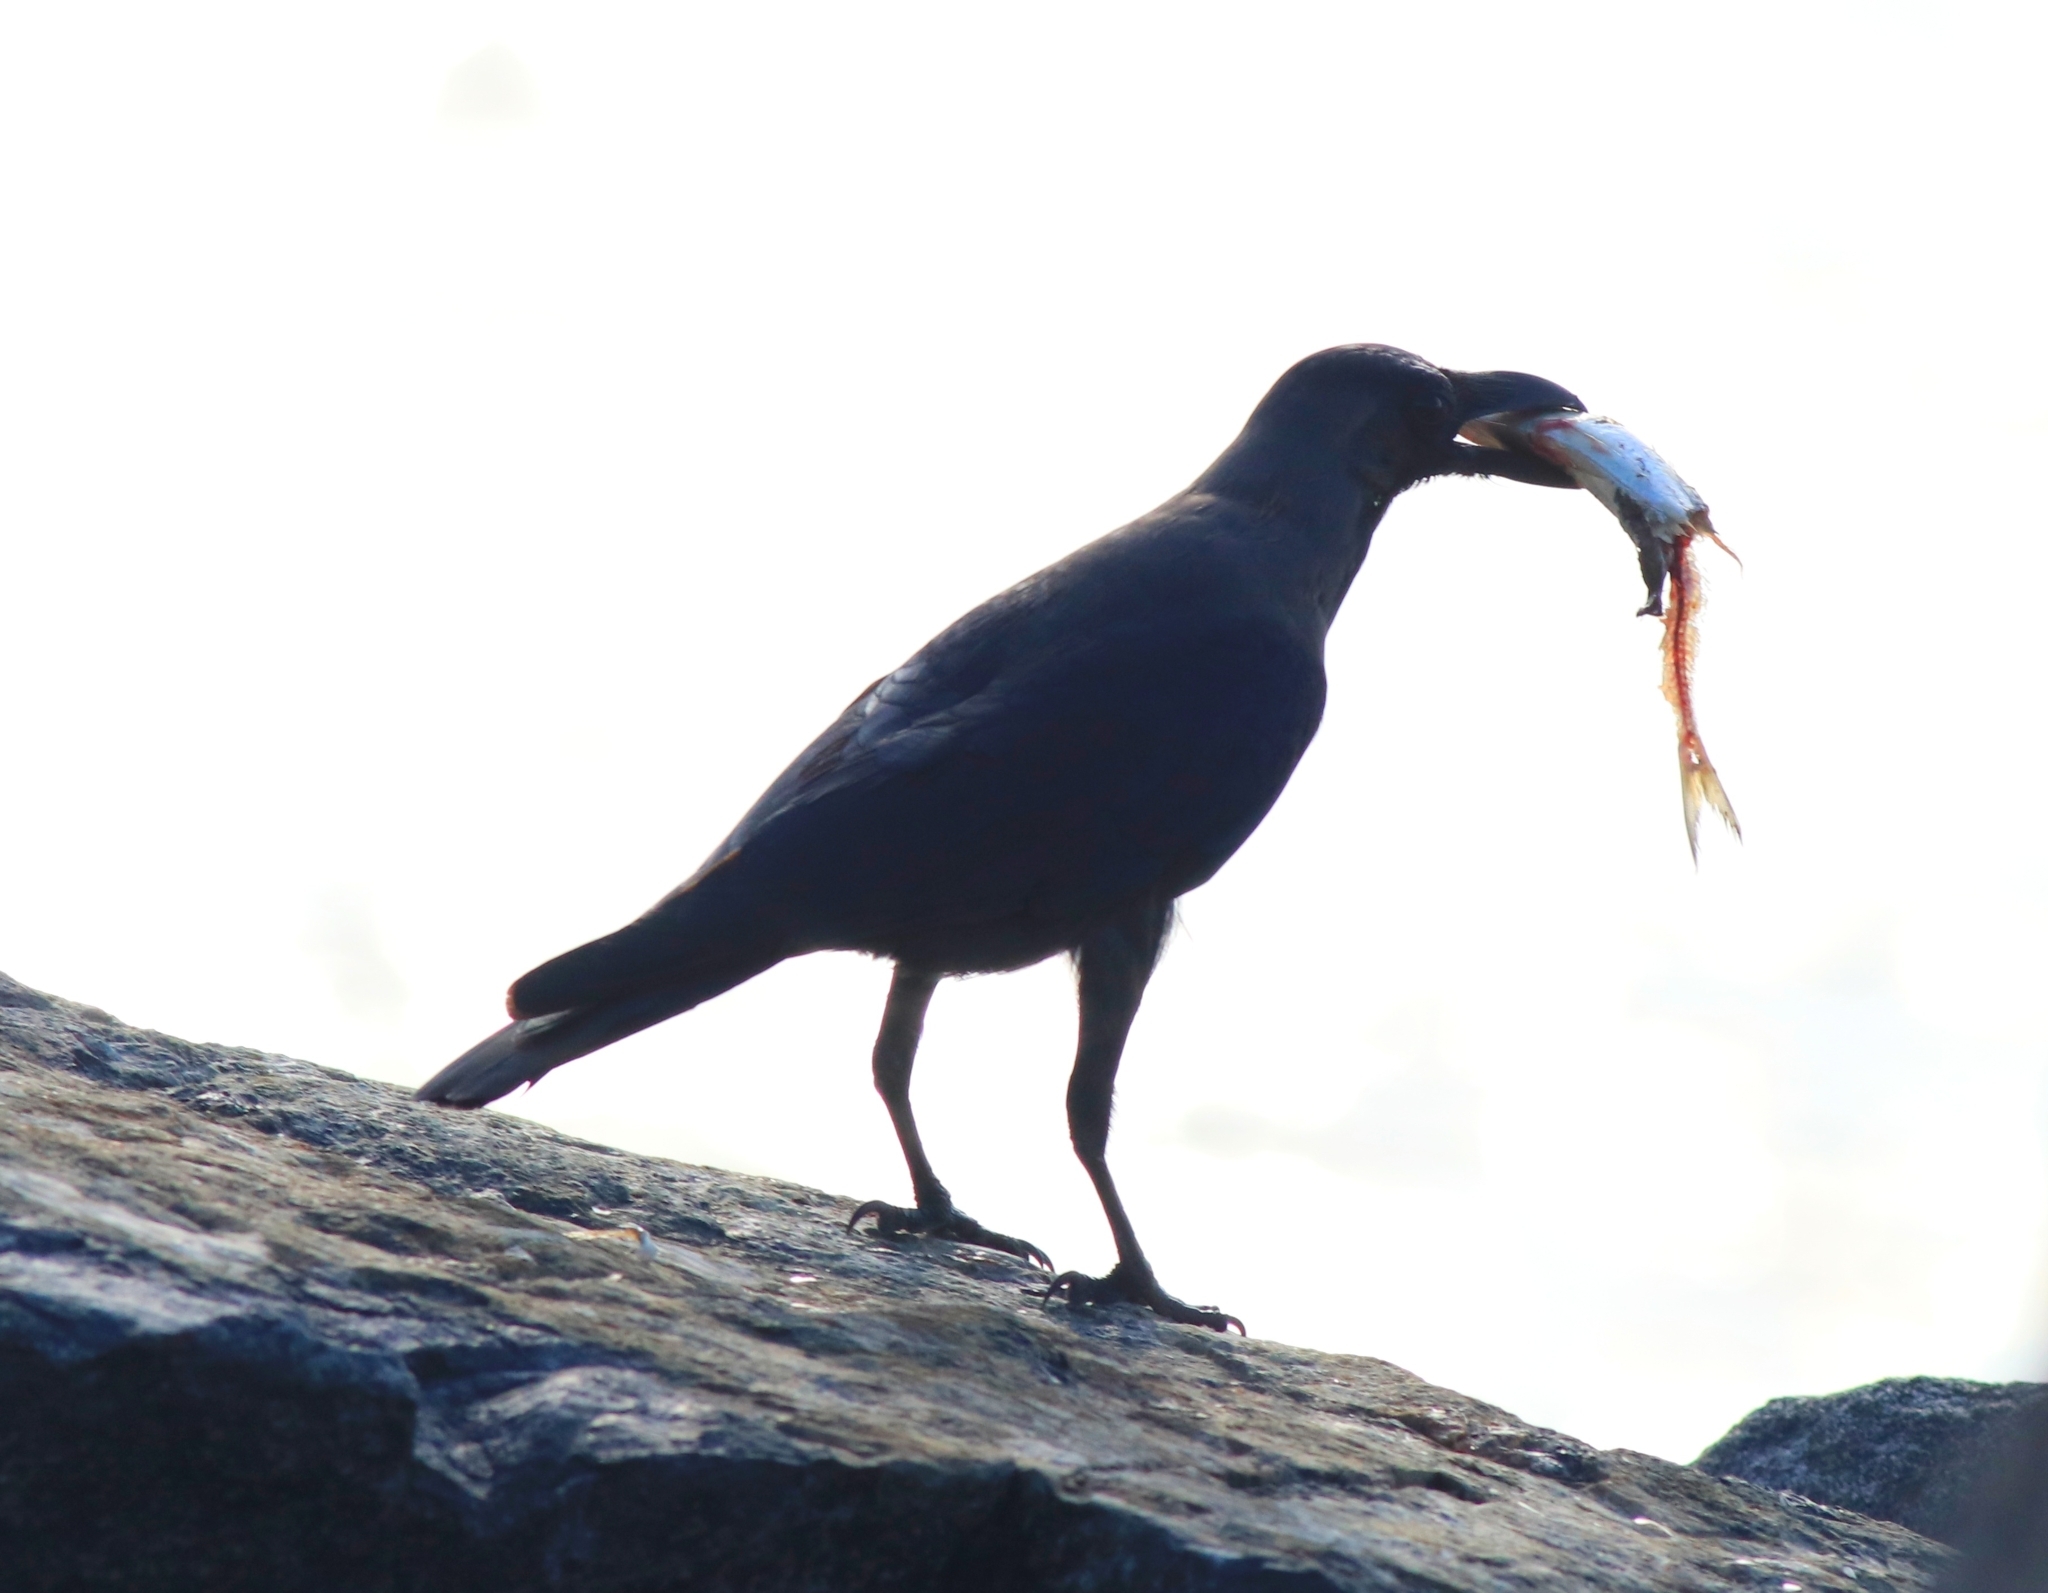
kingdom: Animalia
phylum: Chordata
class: Aves
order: Passeriformes
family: Corvidae
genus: Corvus
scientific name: Corvus splendens
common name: House crow
